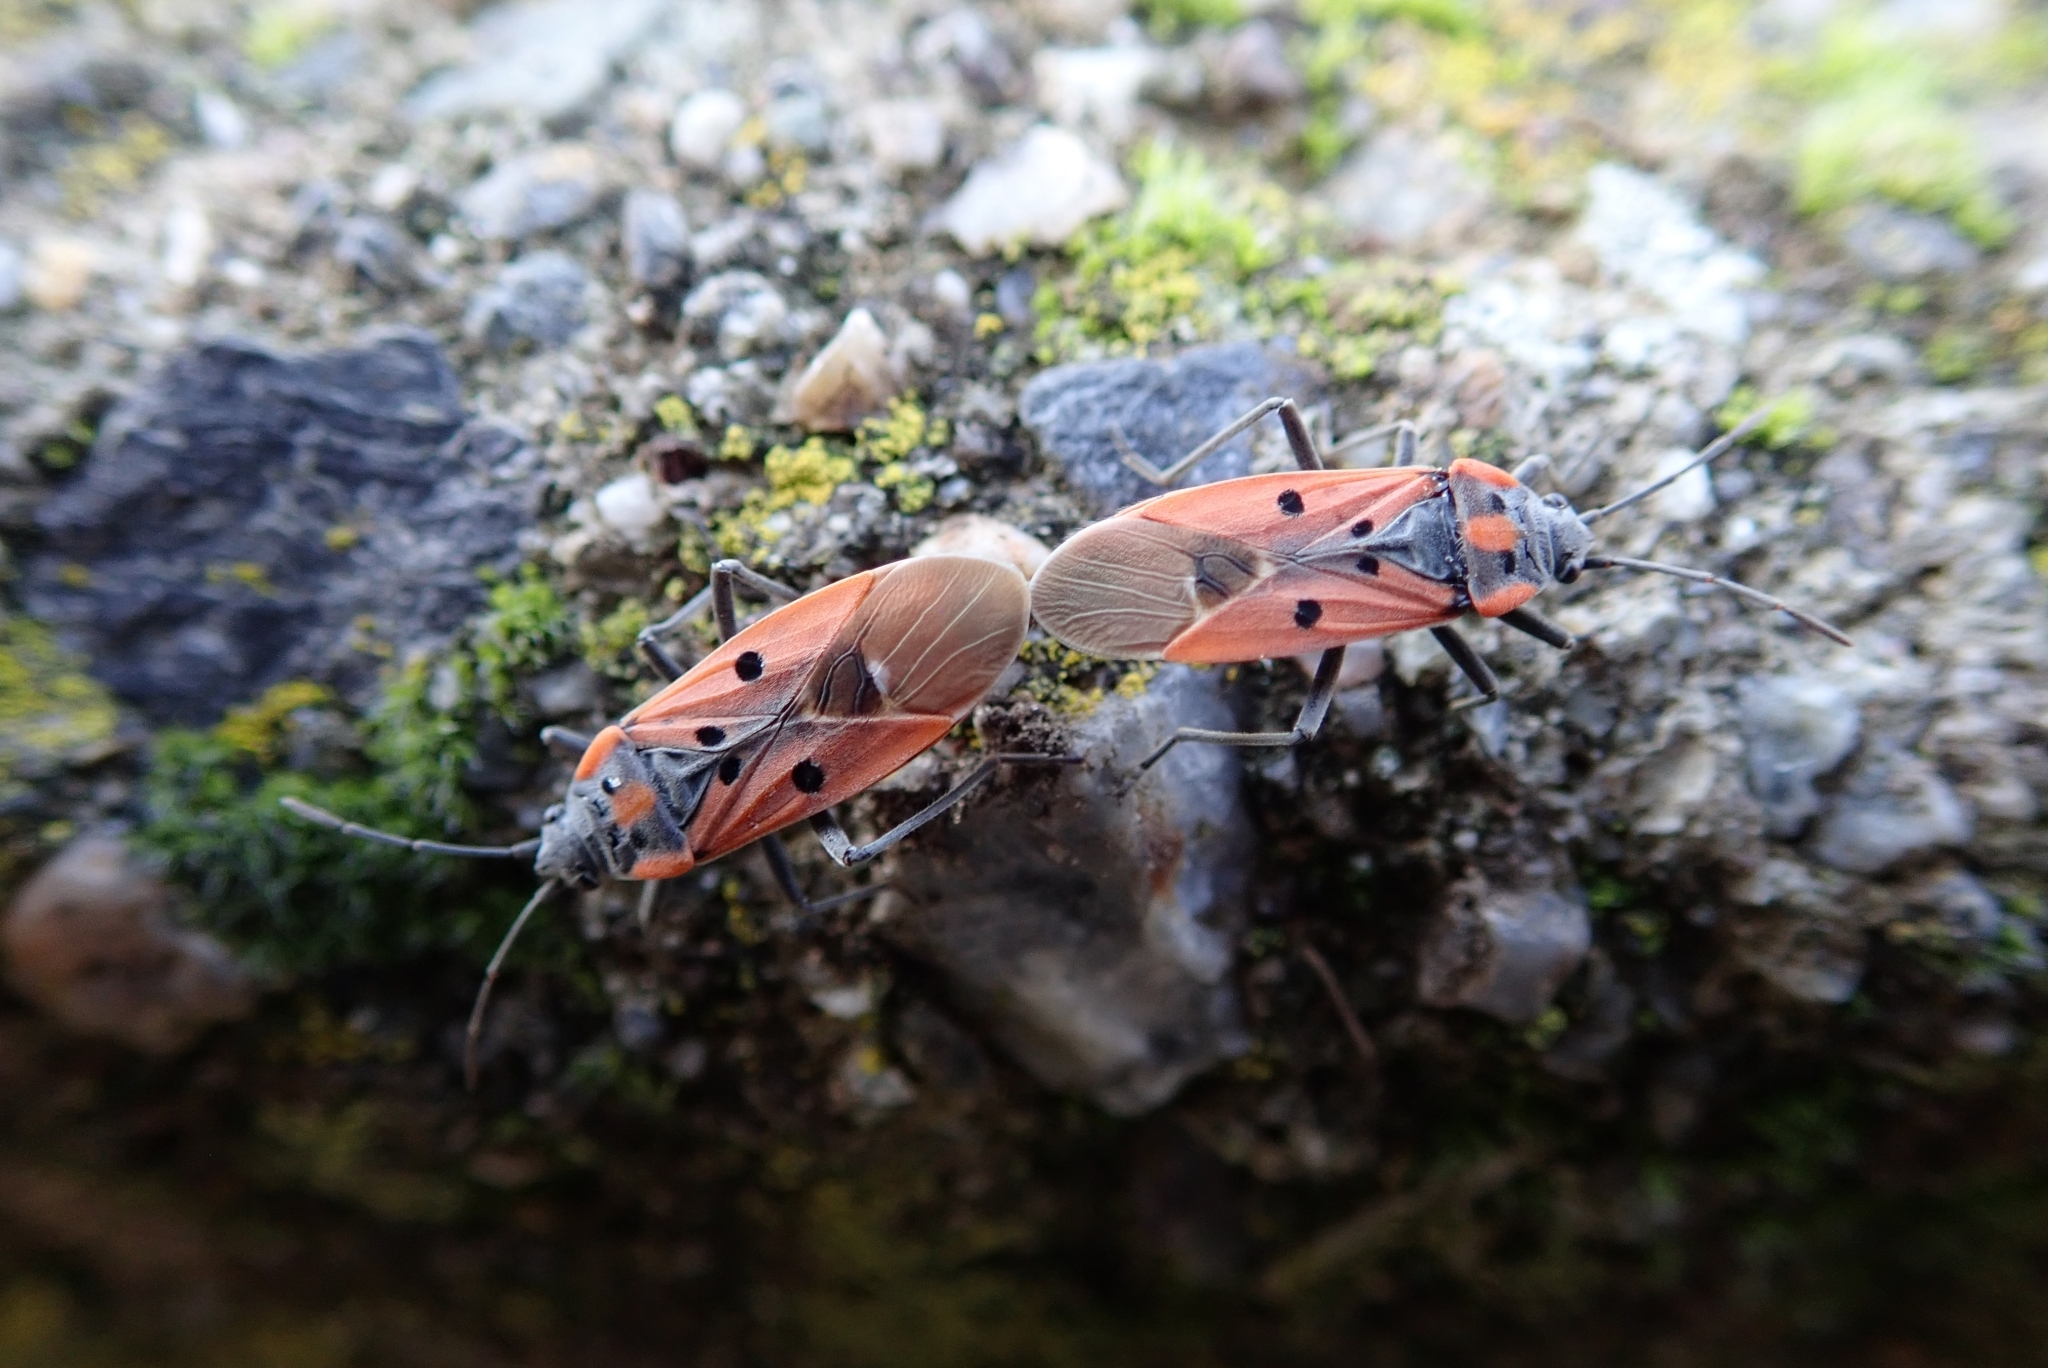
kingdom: Animalia
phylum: Arthropoda
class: Insecta
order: Hemiptera
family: Lygaeidae
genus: Lygaeus
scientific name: Lygaeus creticus
